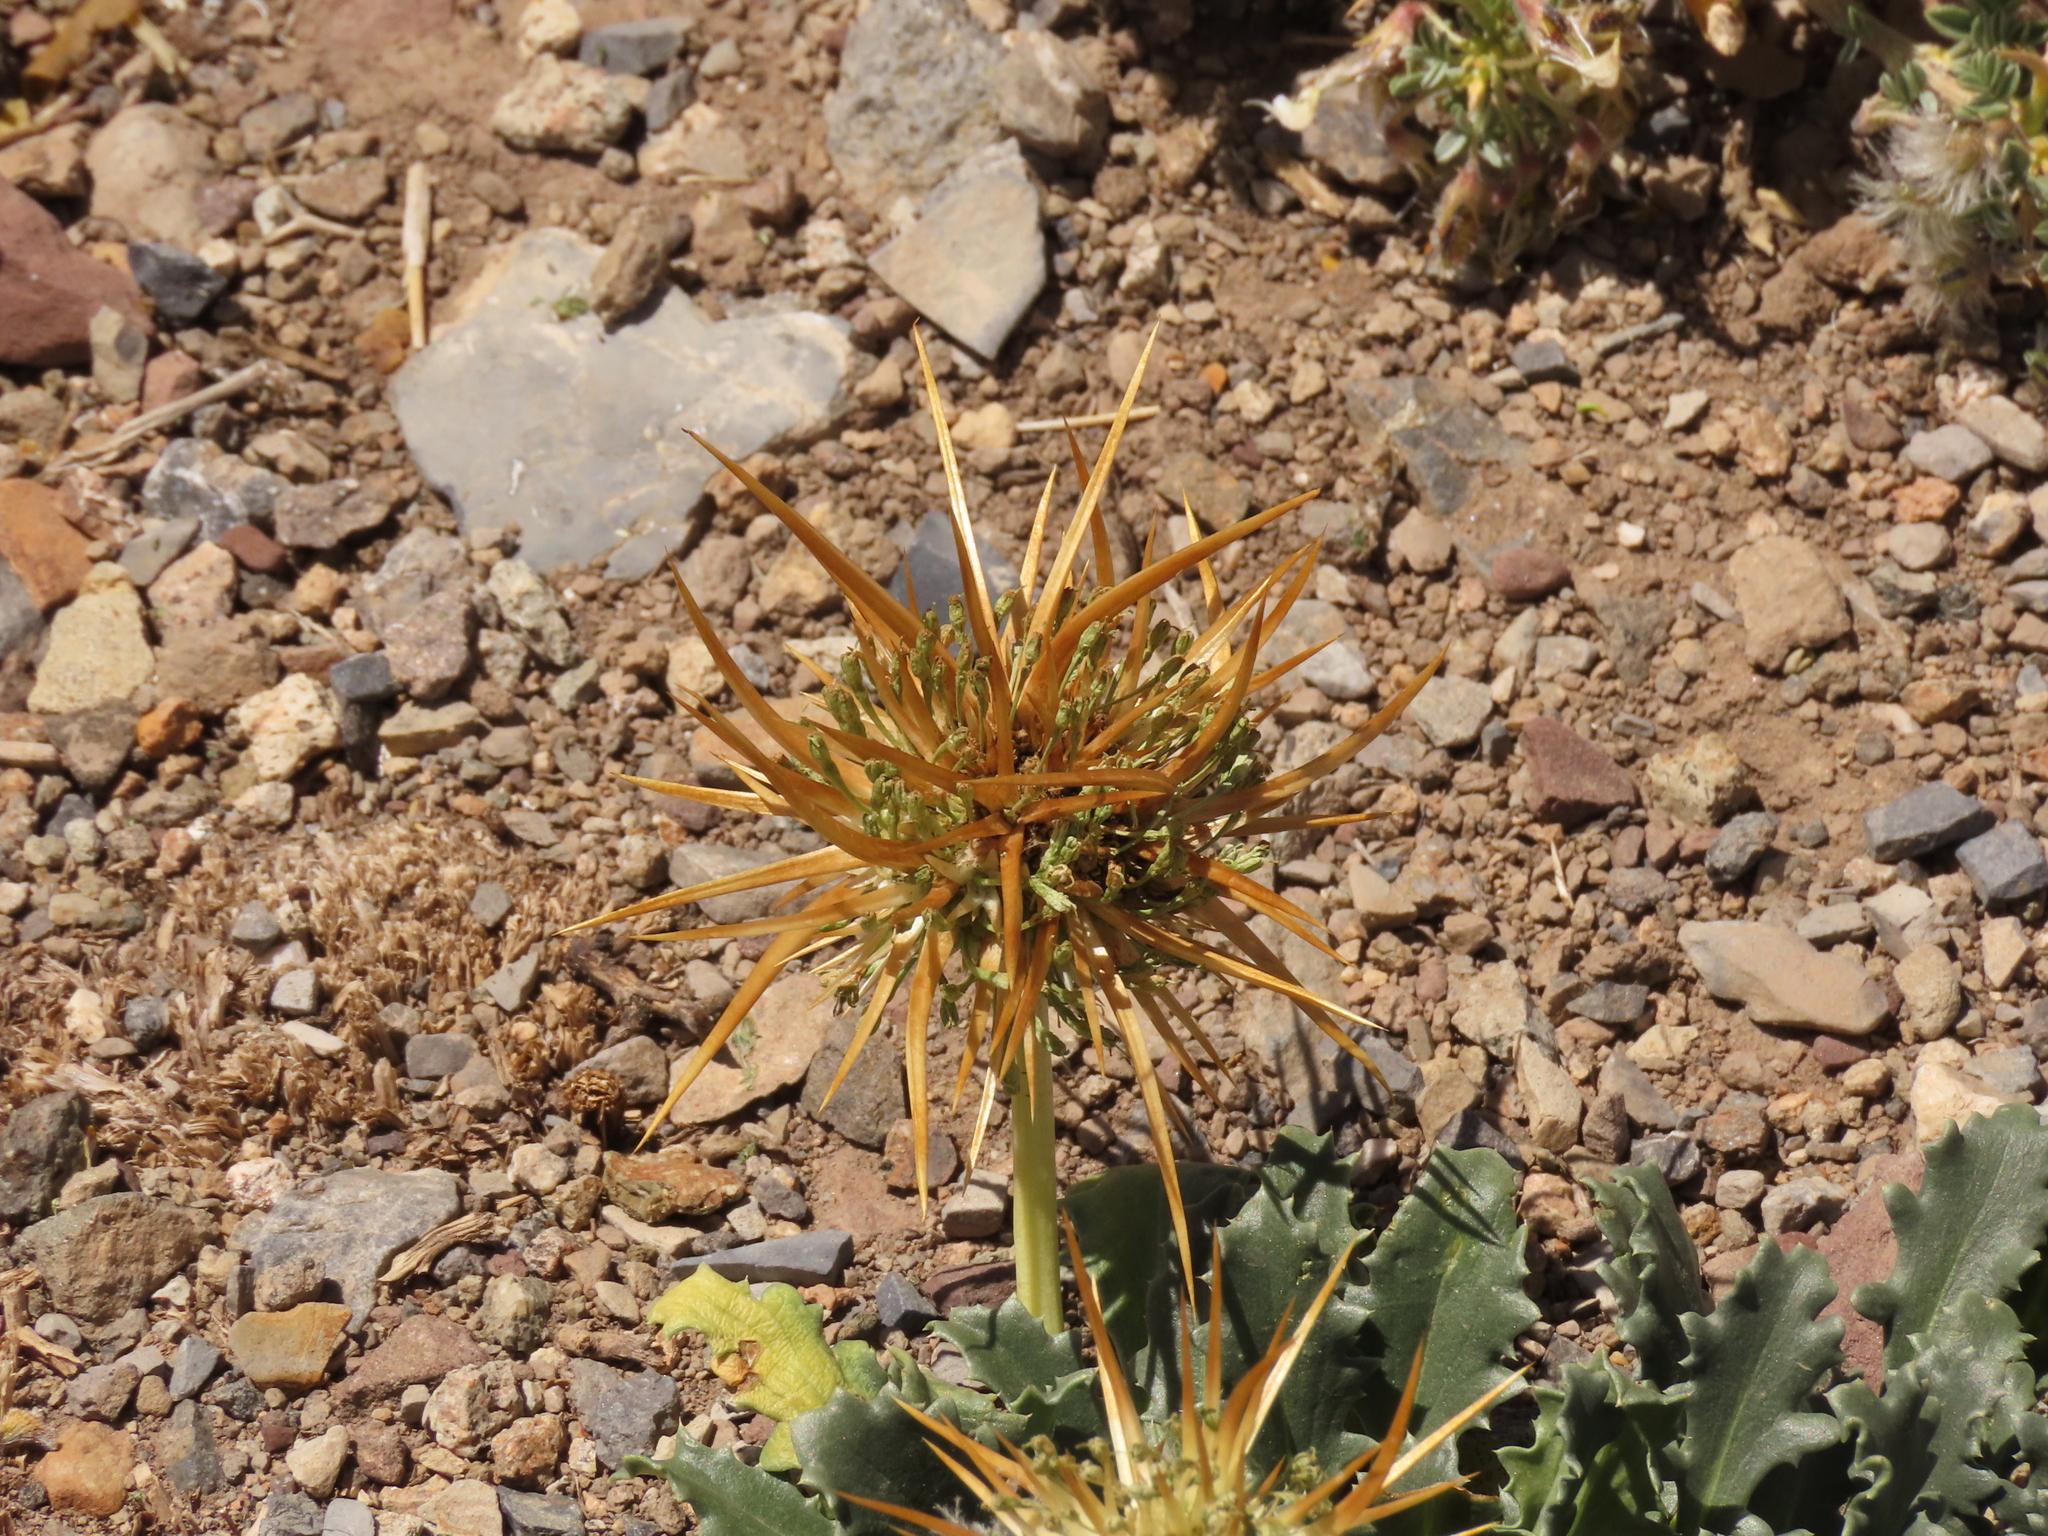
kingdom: Plantae
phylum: Tracheophyta
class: Magnoliopsida
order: Asterales
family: Calyceraceae
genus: Calycera
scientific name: Calycera herbacea
